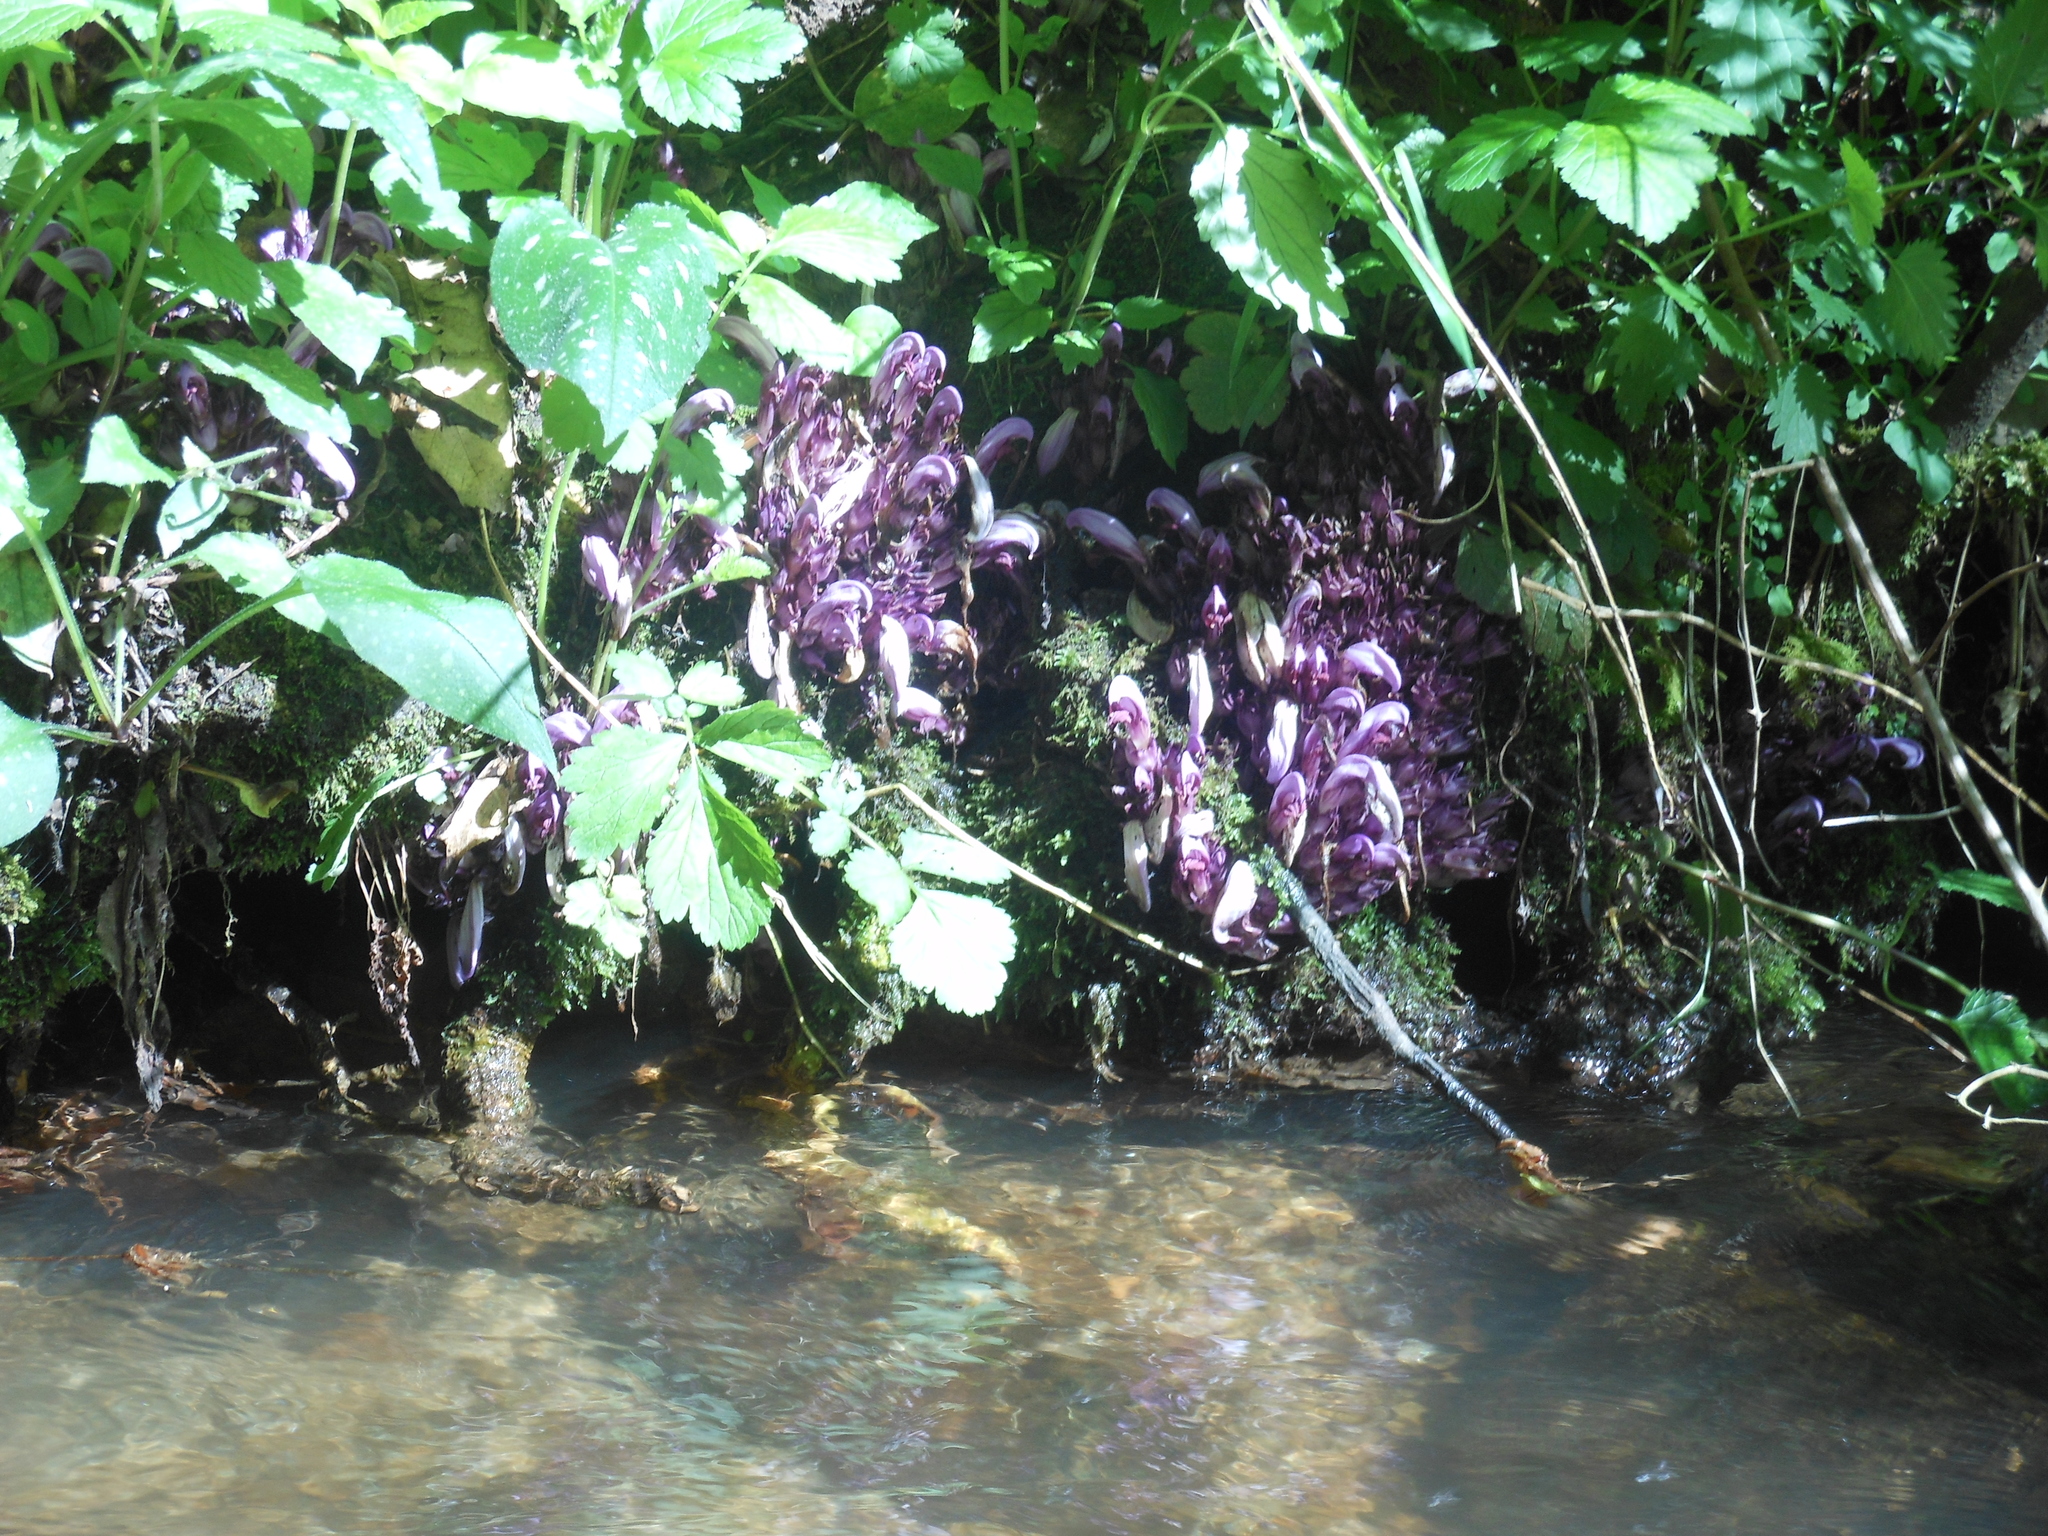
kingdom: Plantae
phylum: Tracheophyta
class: Magnoliopsida
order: Lamiales
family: Orobanchaceae
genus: Lathraea
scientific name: Lathraea clandestina
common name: Purple toothwort
